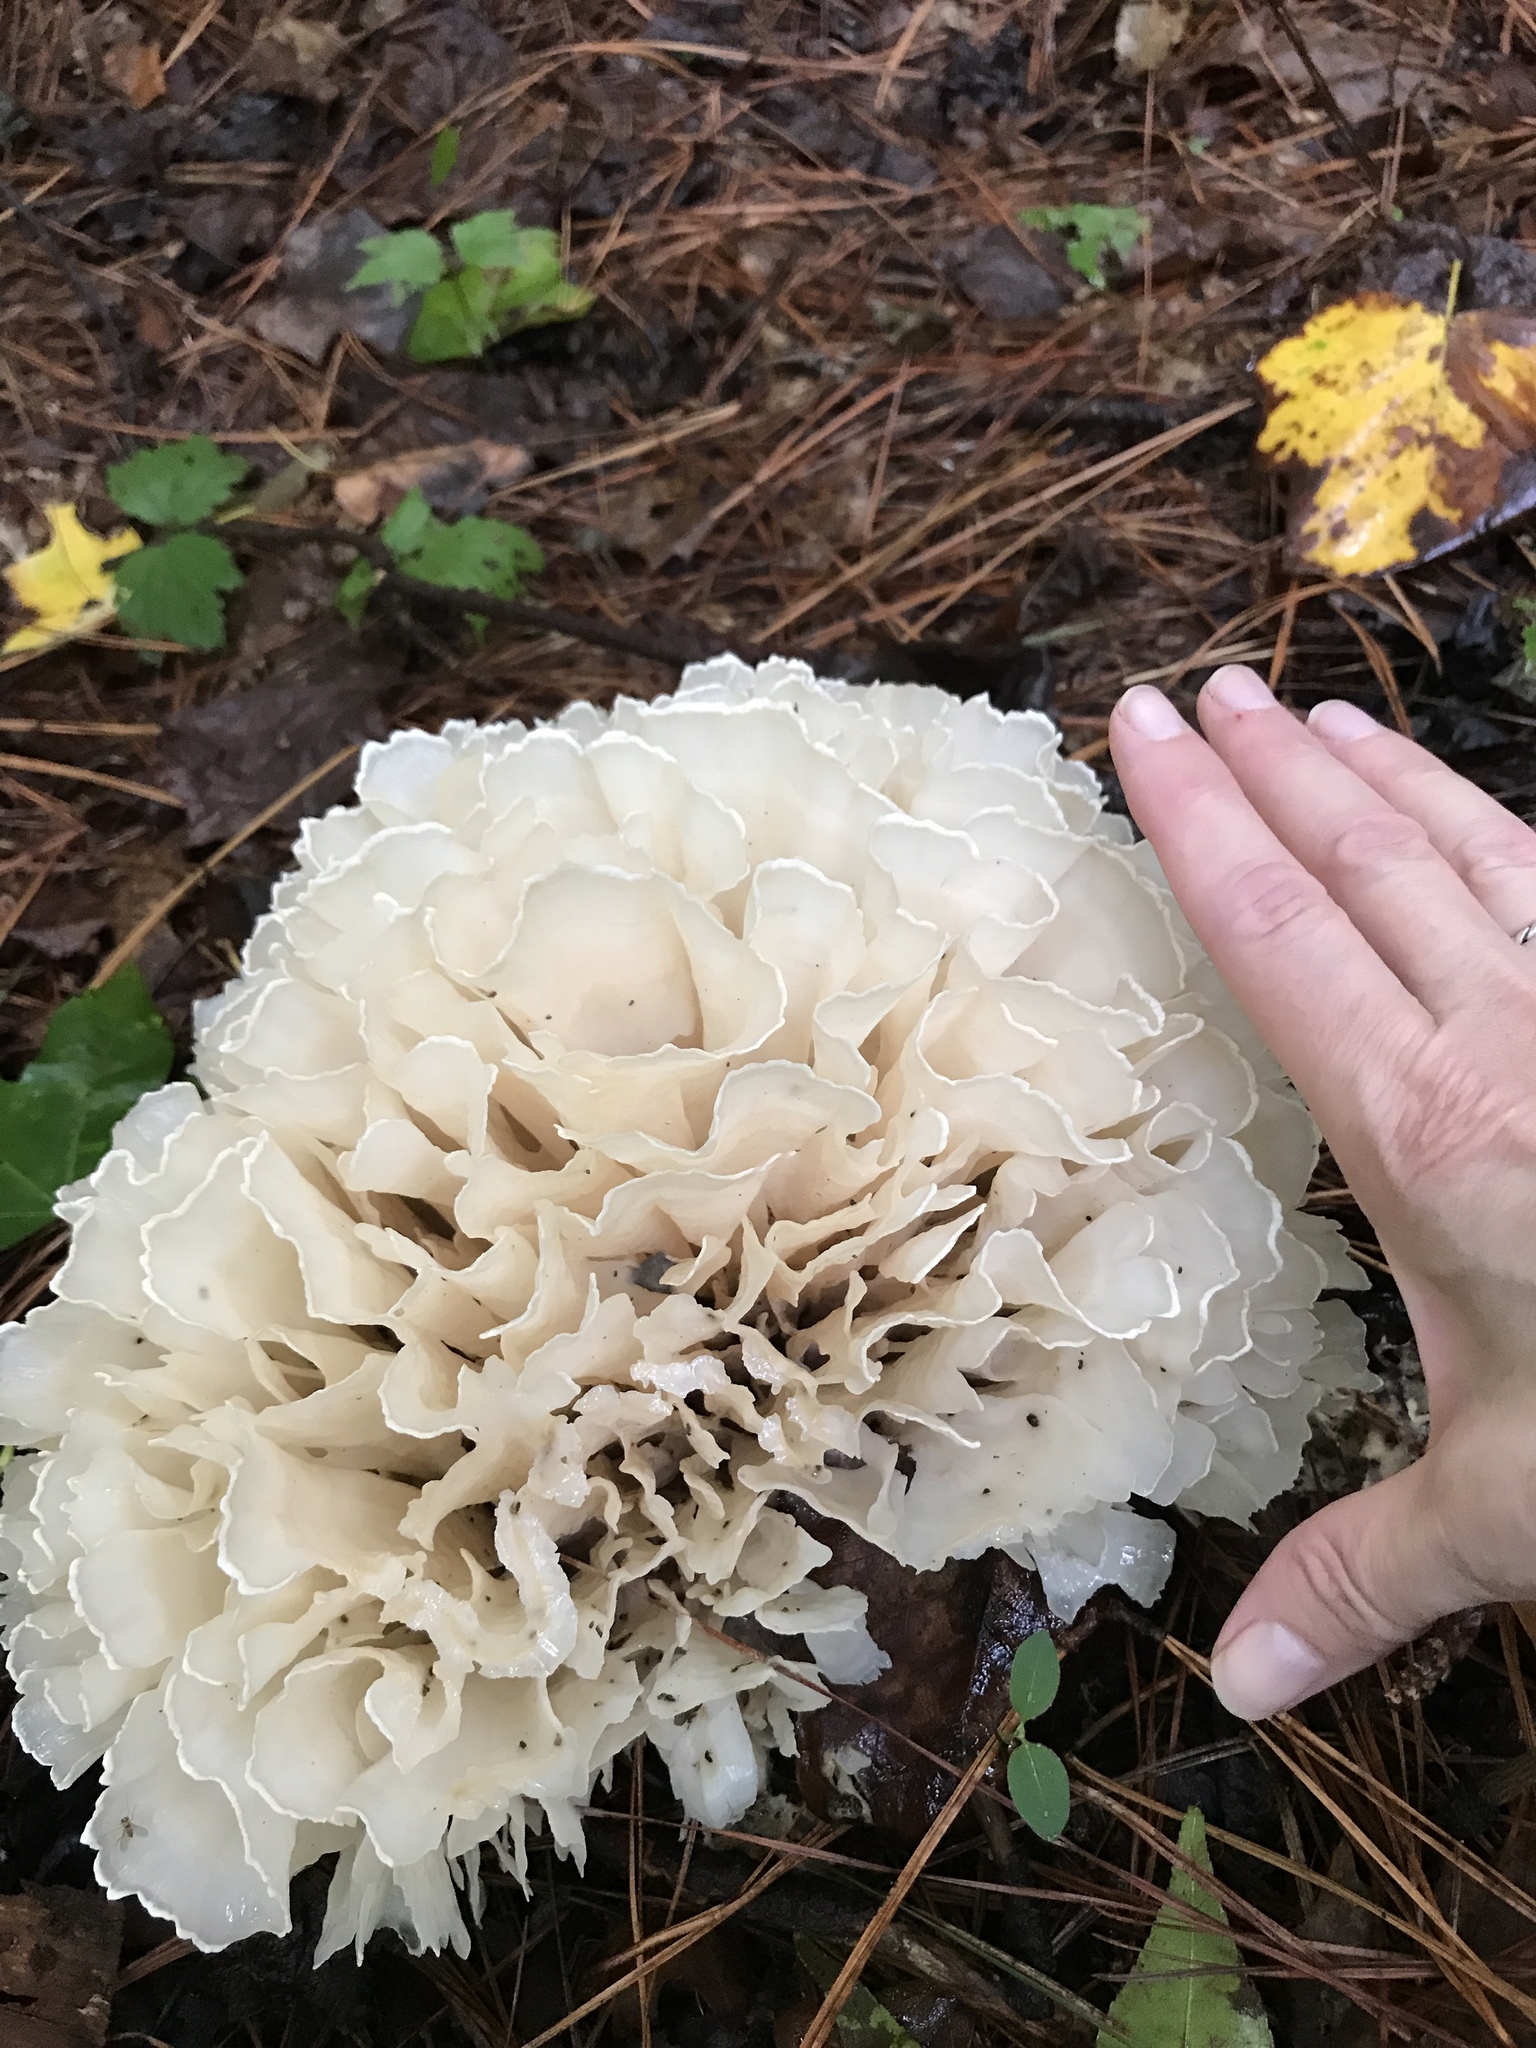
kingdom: Fungi
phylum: Basidiomycota
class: Agaricomycetes
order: Polyporales
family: Sparassidaceae
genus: Sparassis
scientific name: Sparassis spathulata
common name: Eastern cauliflower mushroom
